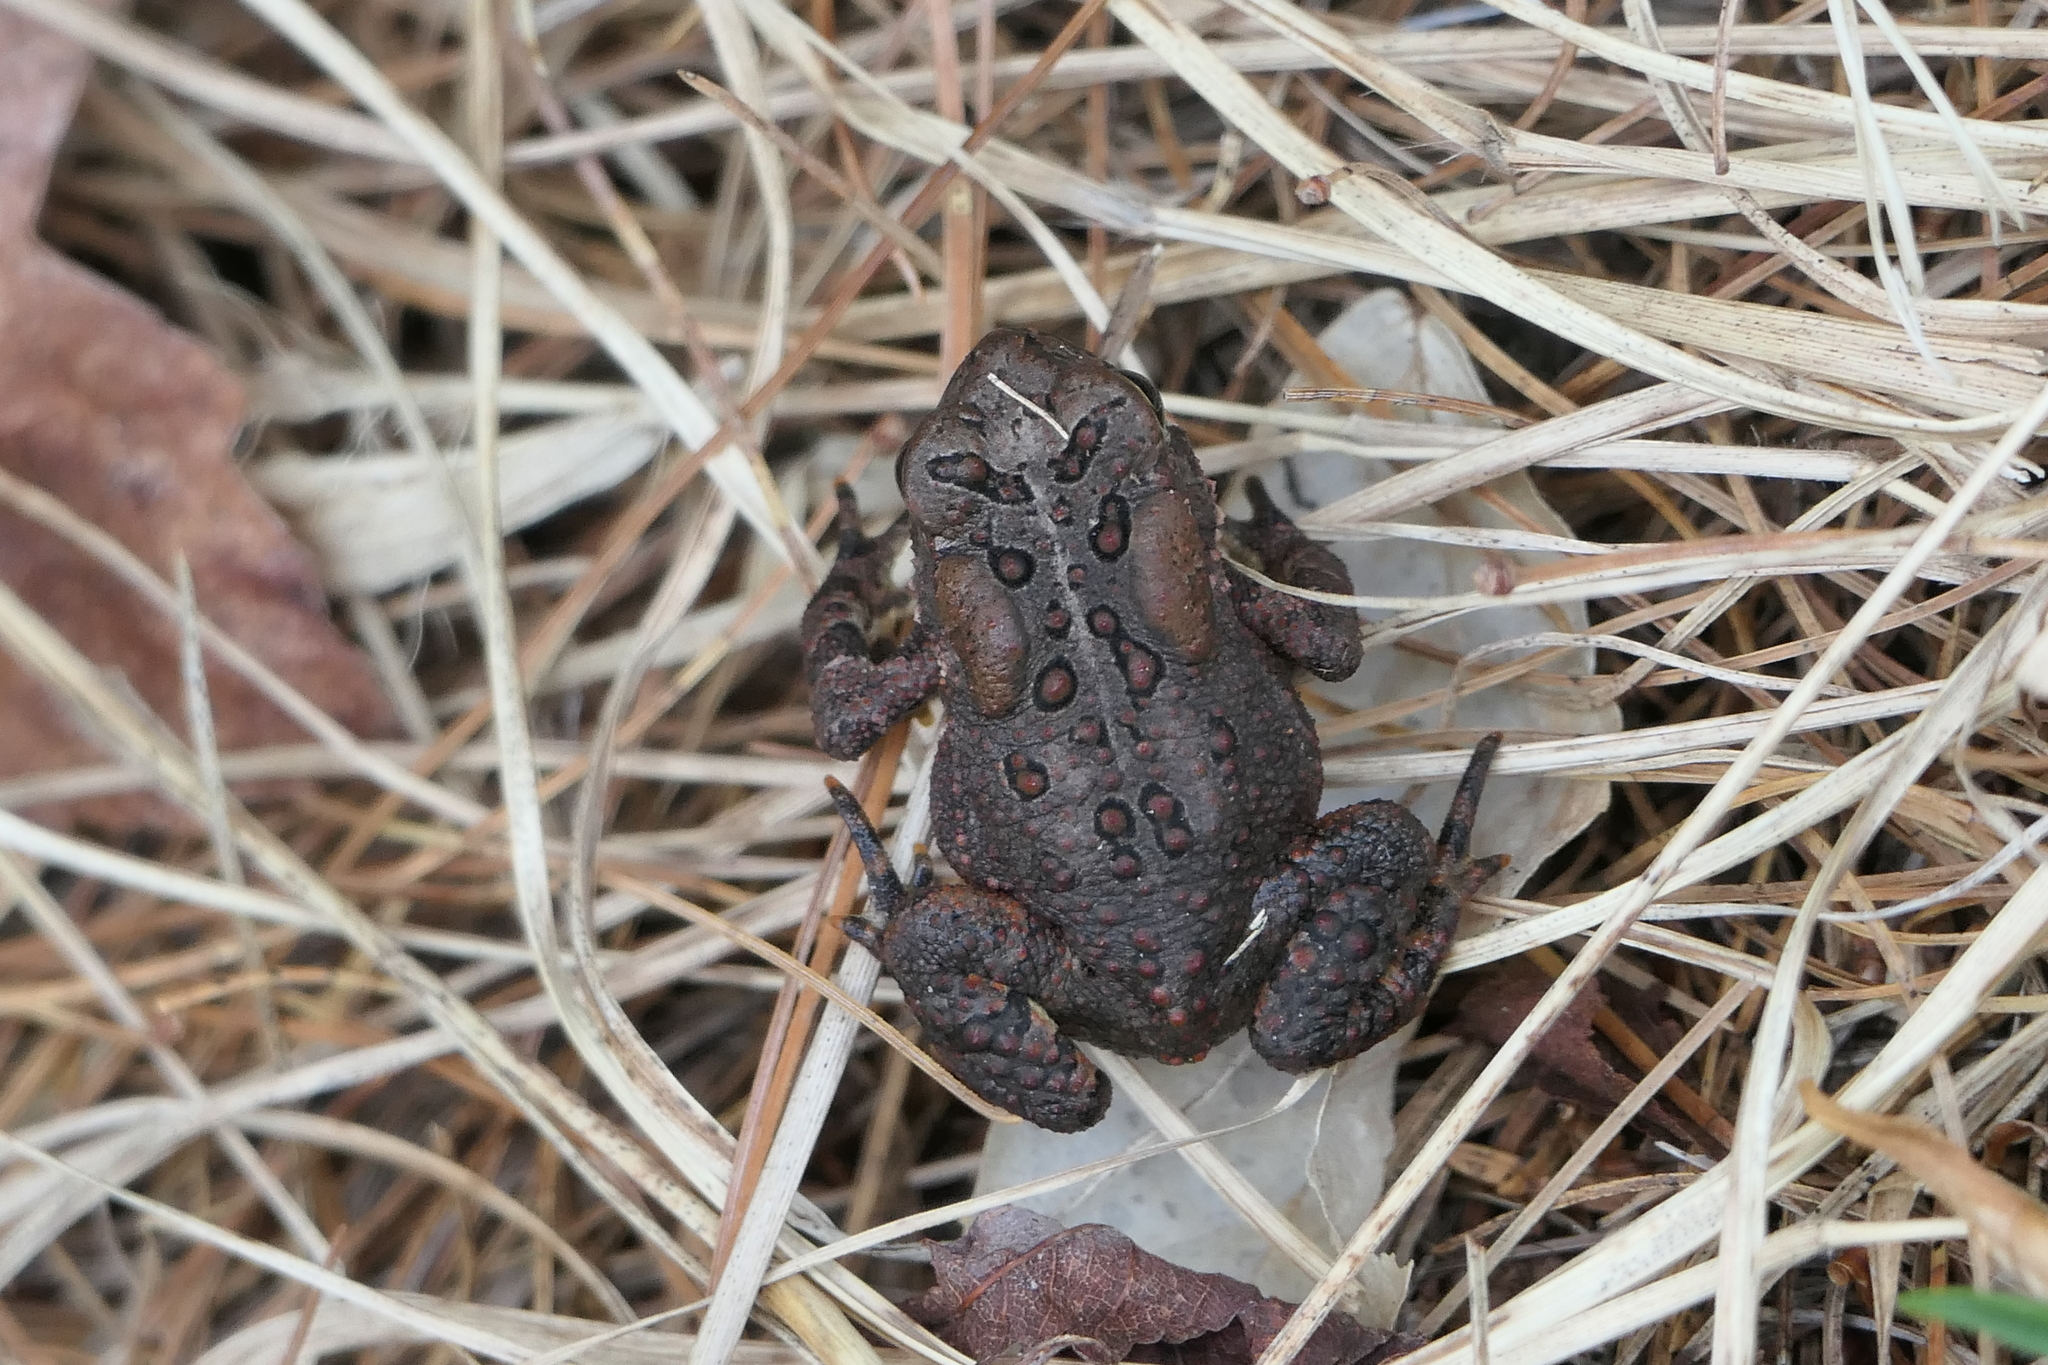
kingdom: Animalia
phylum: Chordata
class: Amphibia
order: Anura
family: Bufonidae
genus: Anaxyrus
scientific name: Anaxyrus americanus
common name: American toad
